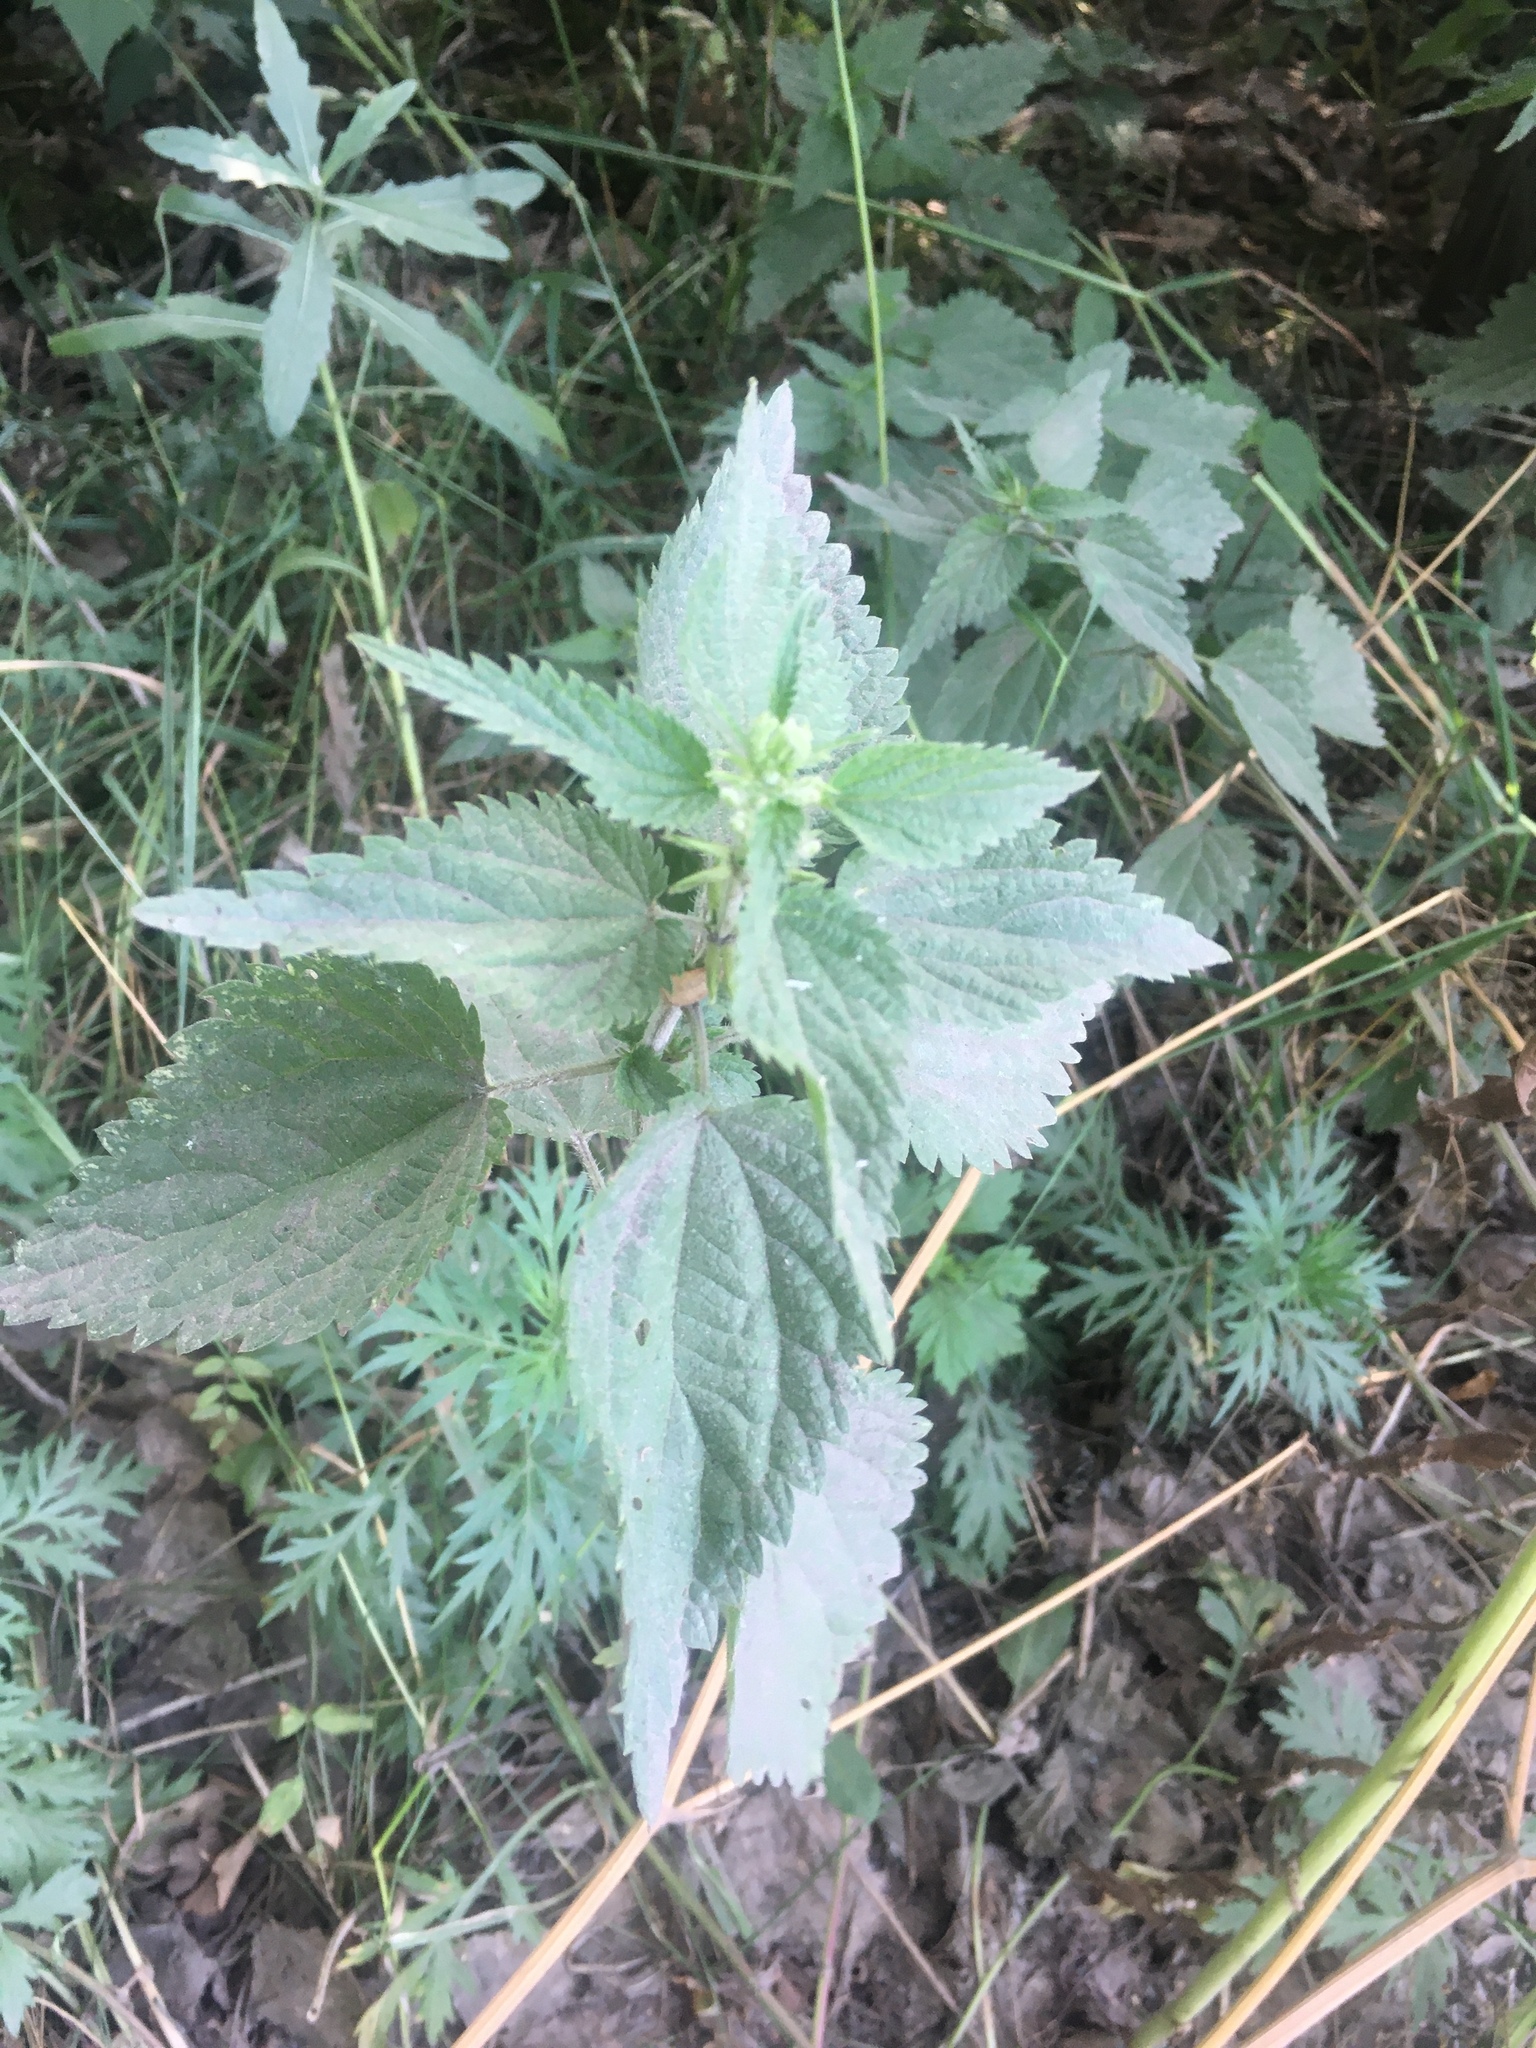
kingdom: Plantae
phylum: Tracheophyta
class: Magnoliopsida
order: Rosales
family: Urticaceae
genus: Urtica
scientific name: Urtica dioica
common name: Common nettle
